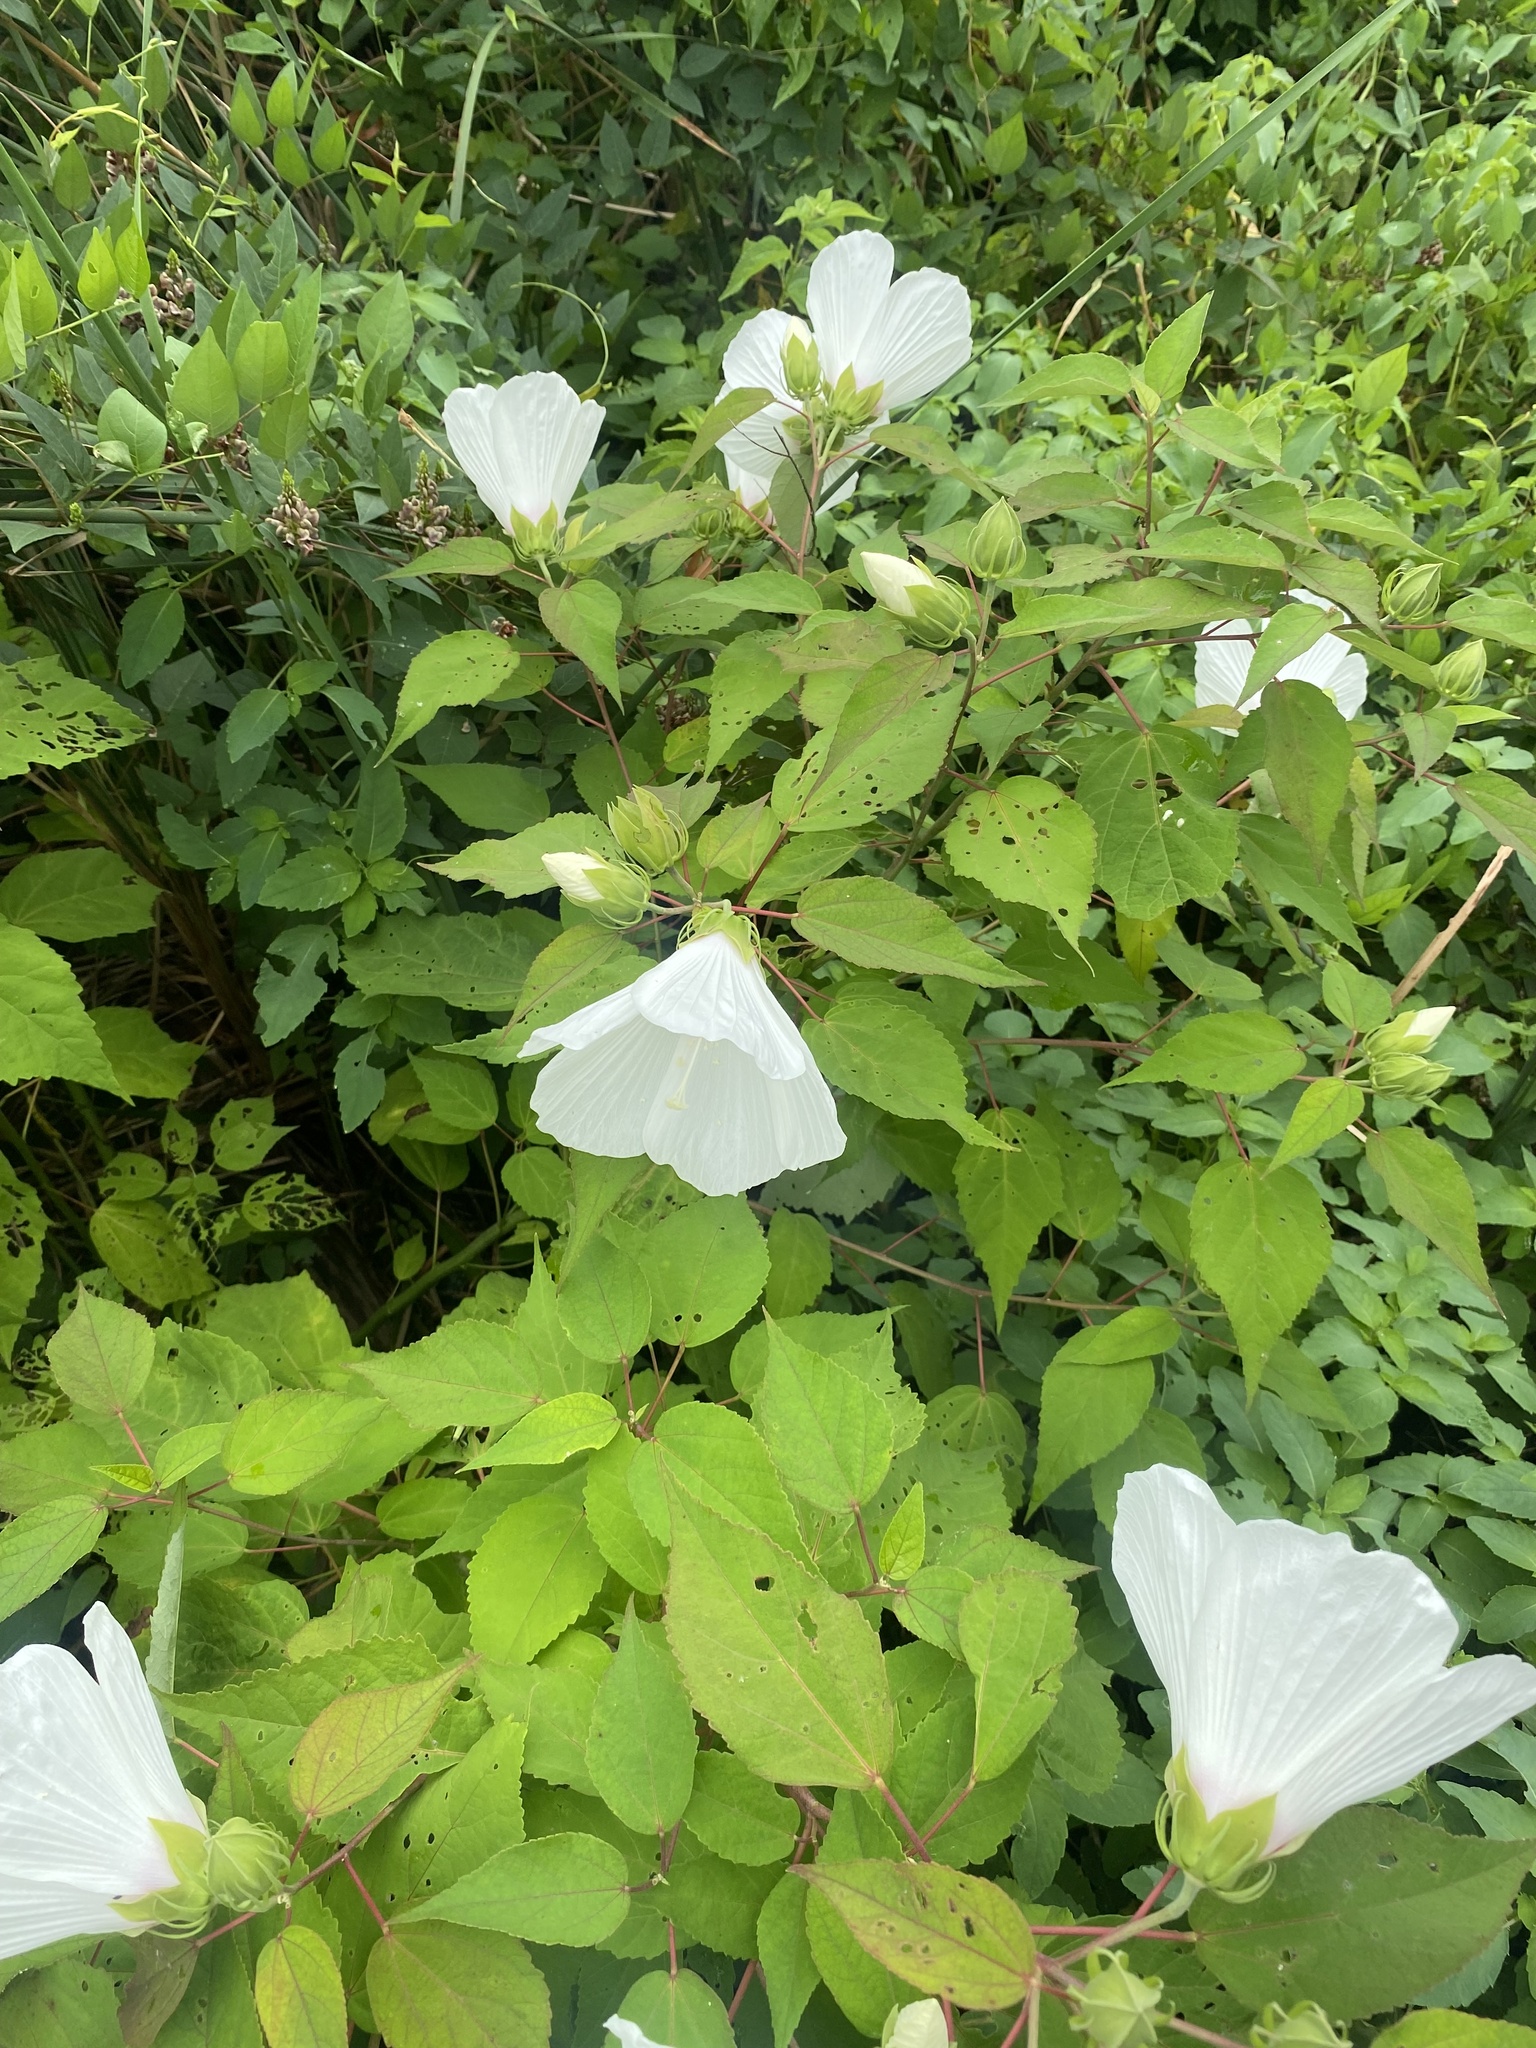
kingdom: Plantae
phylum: Tracheophyta
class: Magnoliopsida
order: Malvales
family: Malvaceae
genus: Hibiscus
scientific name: Hibiscus moscheutos
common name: Common rose-mallow
